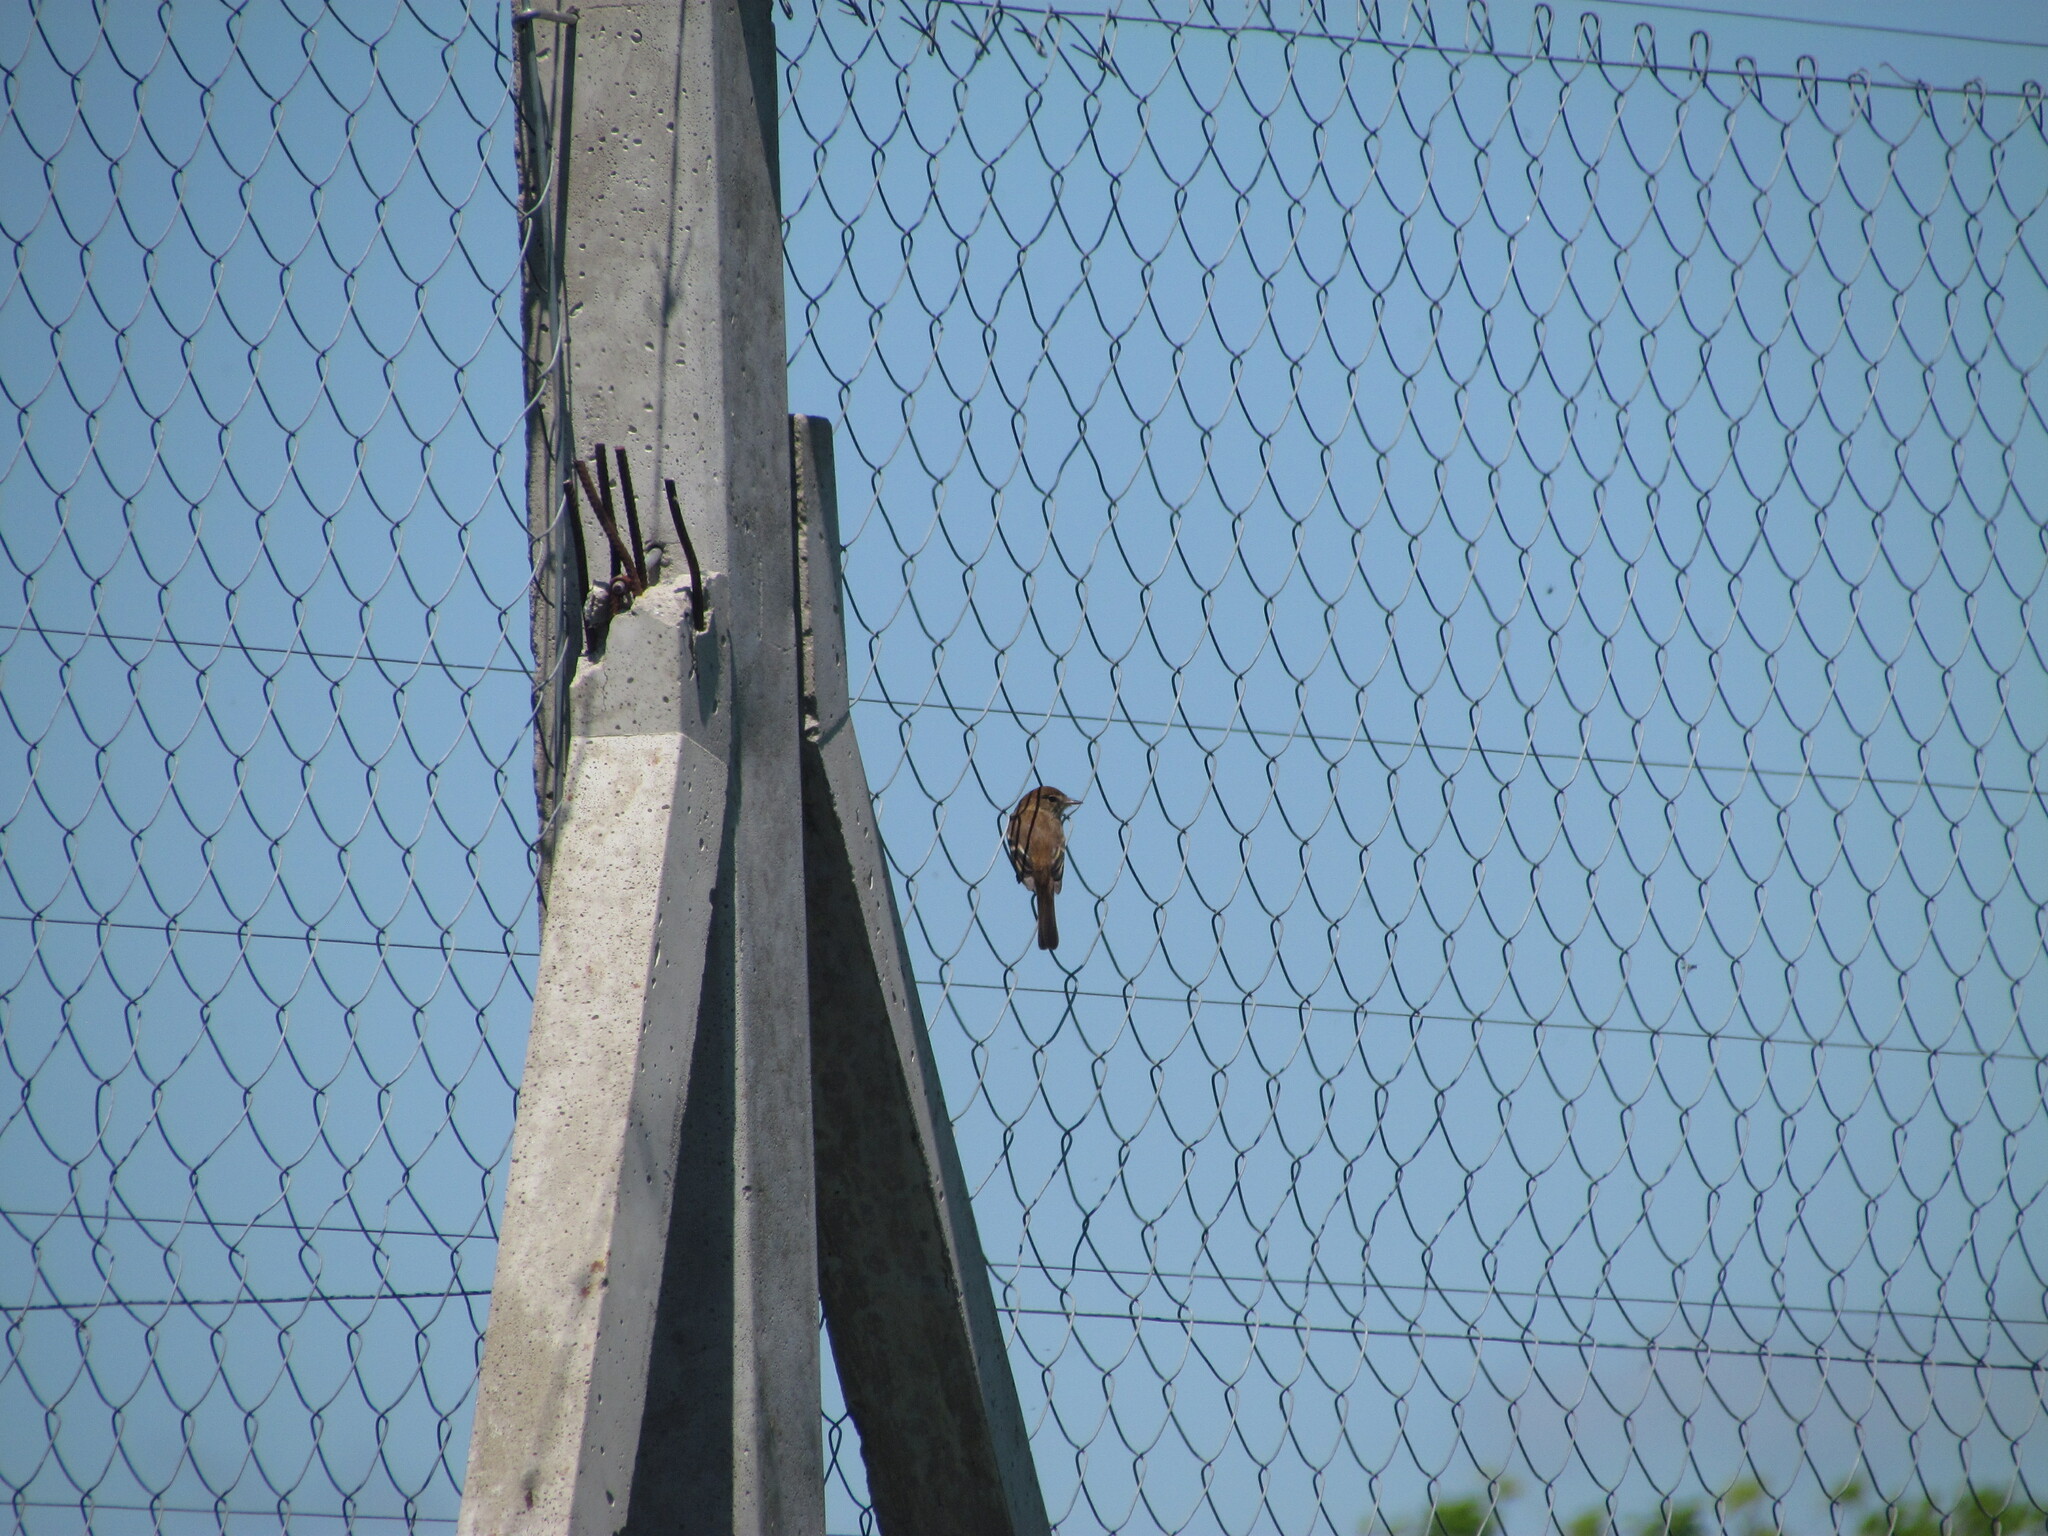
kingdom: Animalia
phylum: Chordata
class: Aves
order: Passeriformes
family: Tyrannidae
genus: Myiophobus
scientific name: Myiophobus fasciatus
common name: Bran-colored flycatcher
